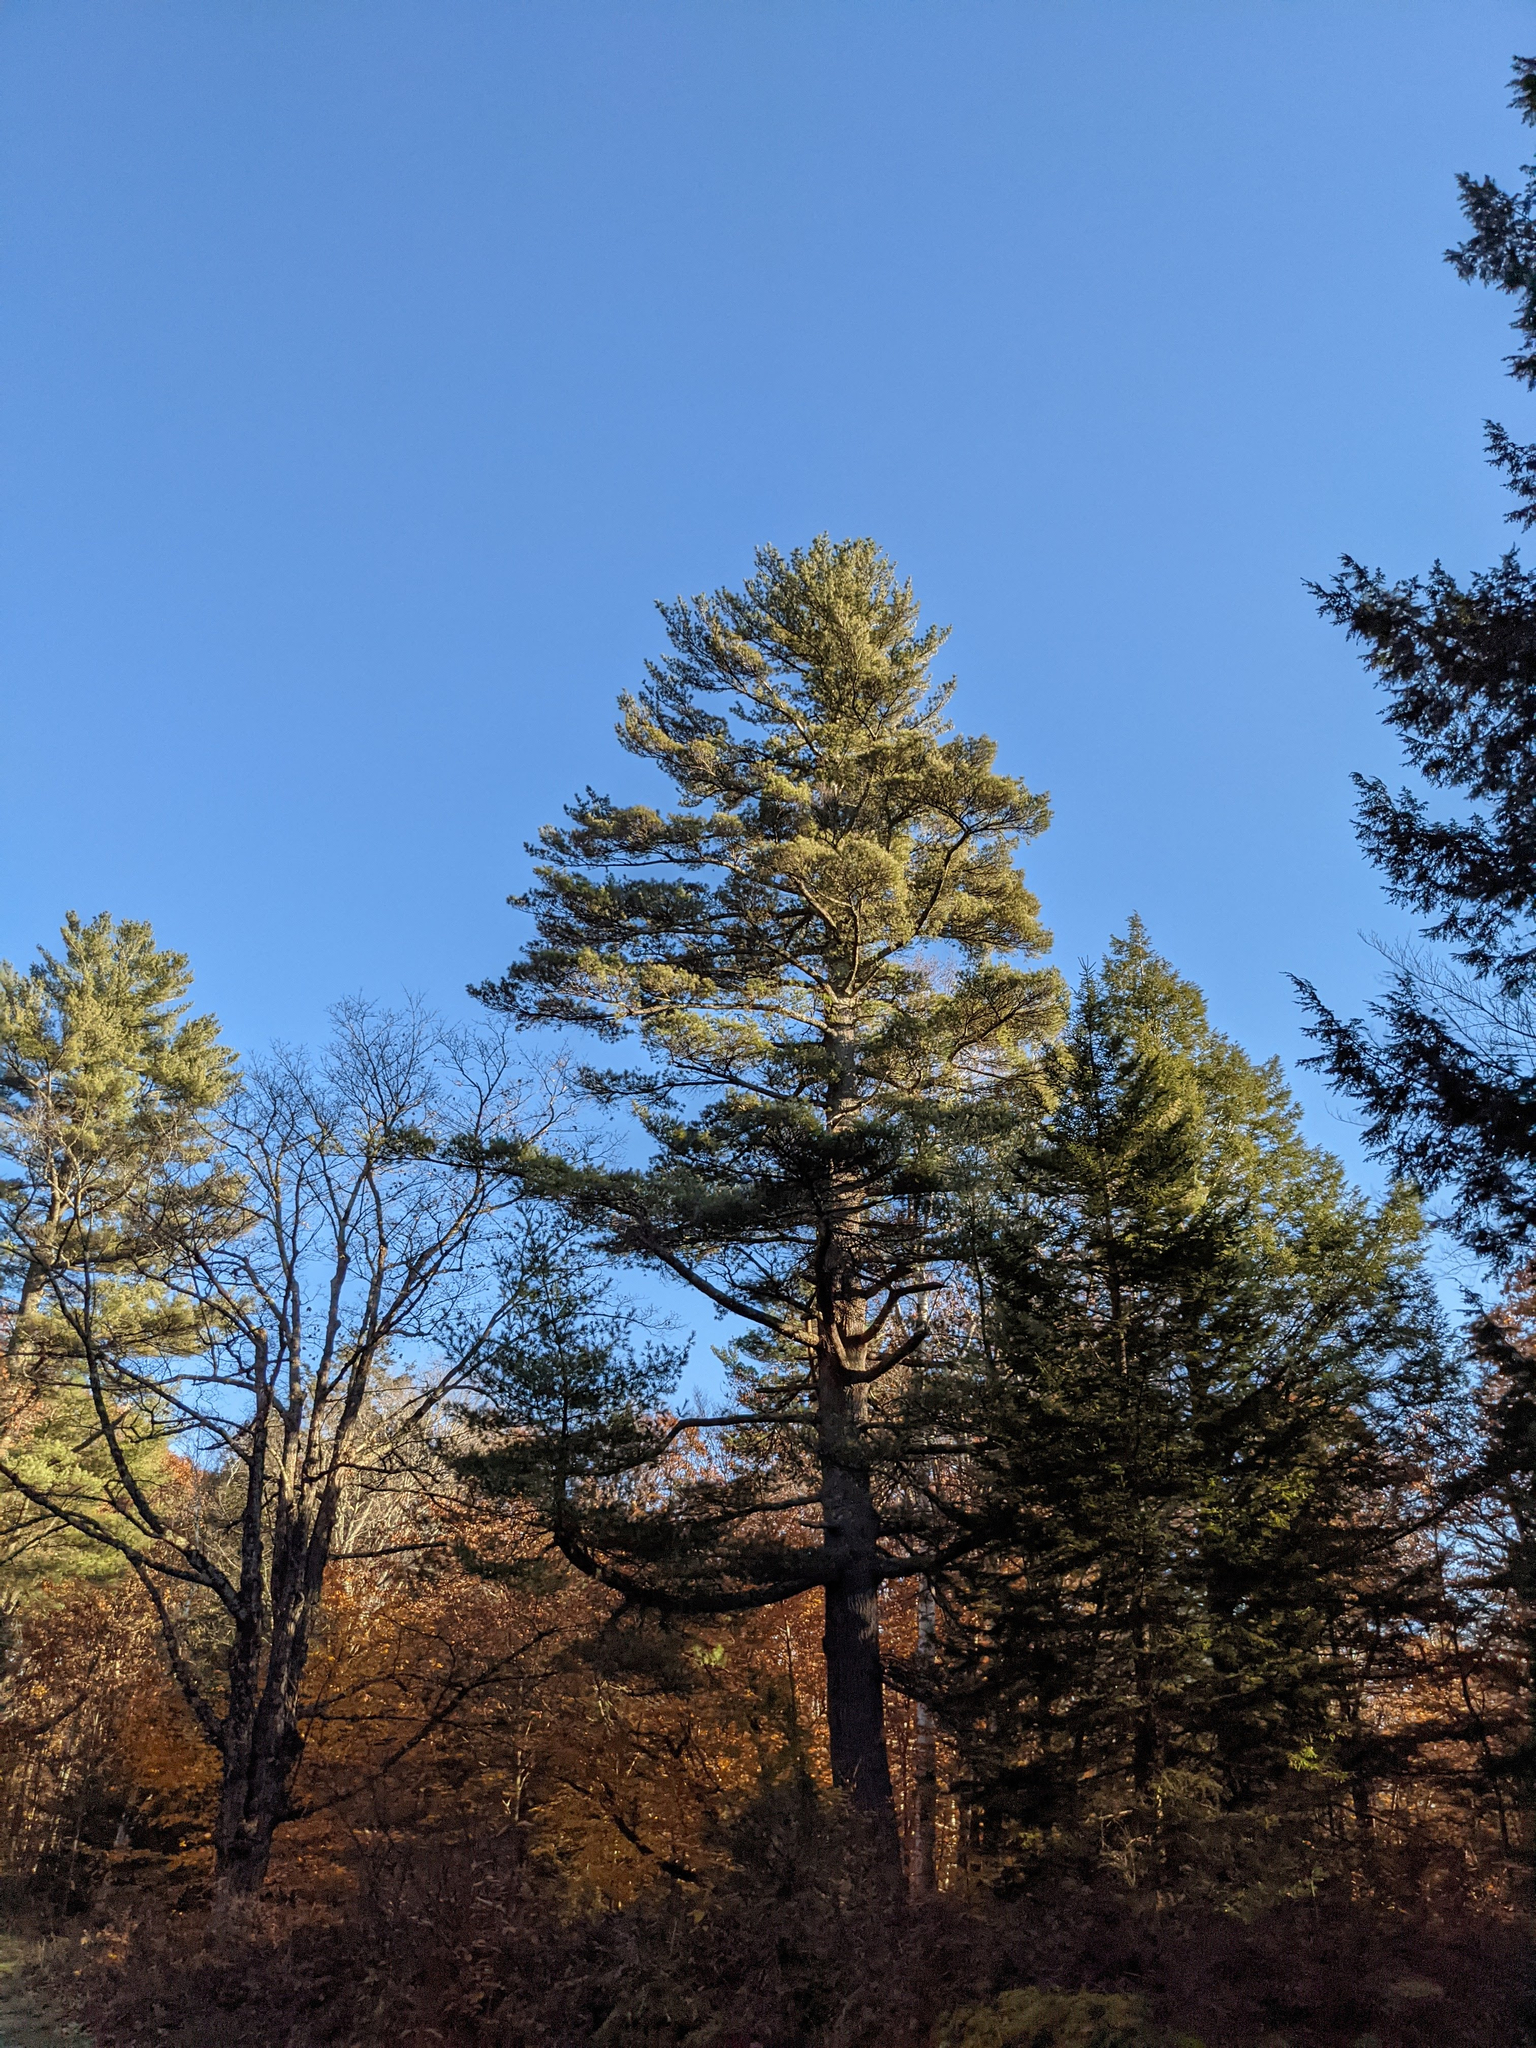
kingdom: Plantae
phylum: Tracheophyta
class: Pinopsida
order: Pinales
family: Pinaceae
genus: Pinus
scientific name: Pinus strobus
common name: Weymouth pine
